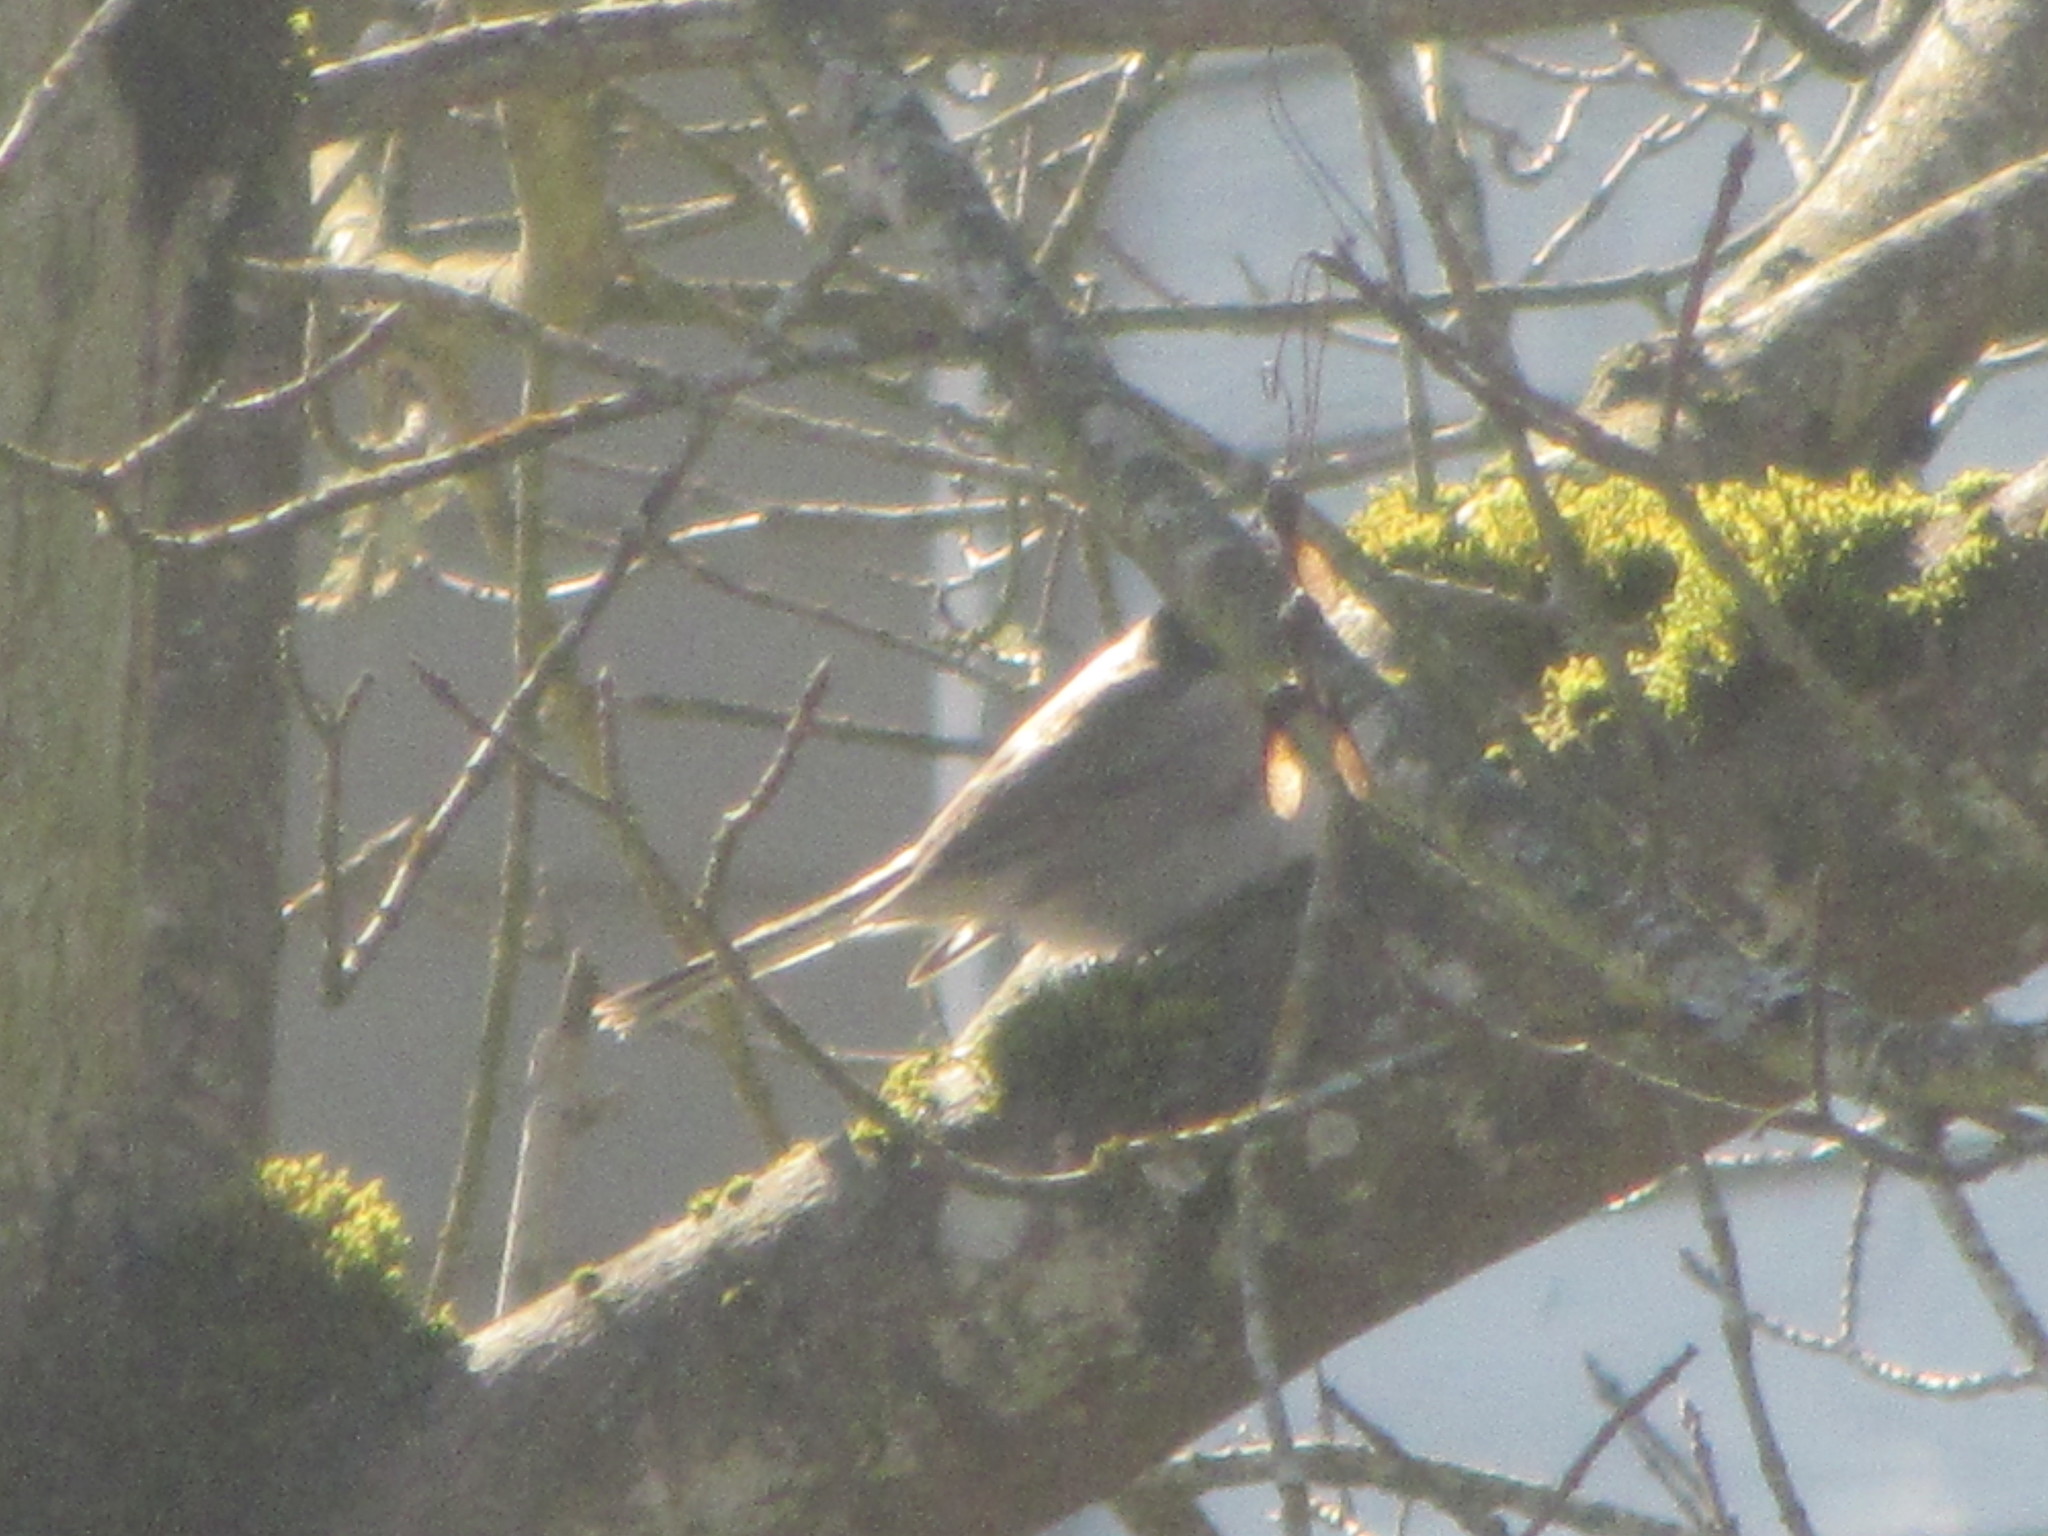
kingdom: Animalia
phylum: Chordata
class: Aves
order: Passeriformes
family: Passerellidae
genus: Junco
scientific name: Junco hyemalis
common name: Dark-eyed junco
